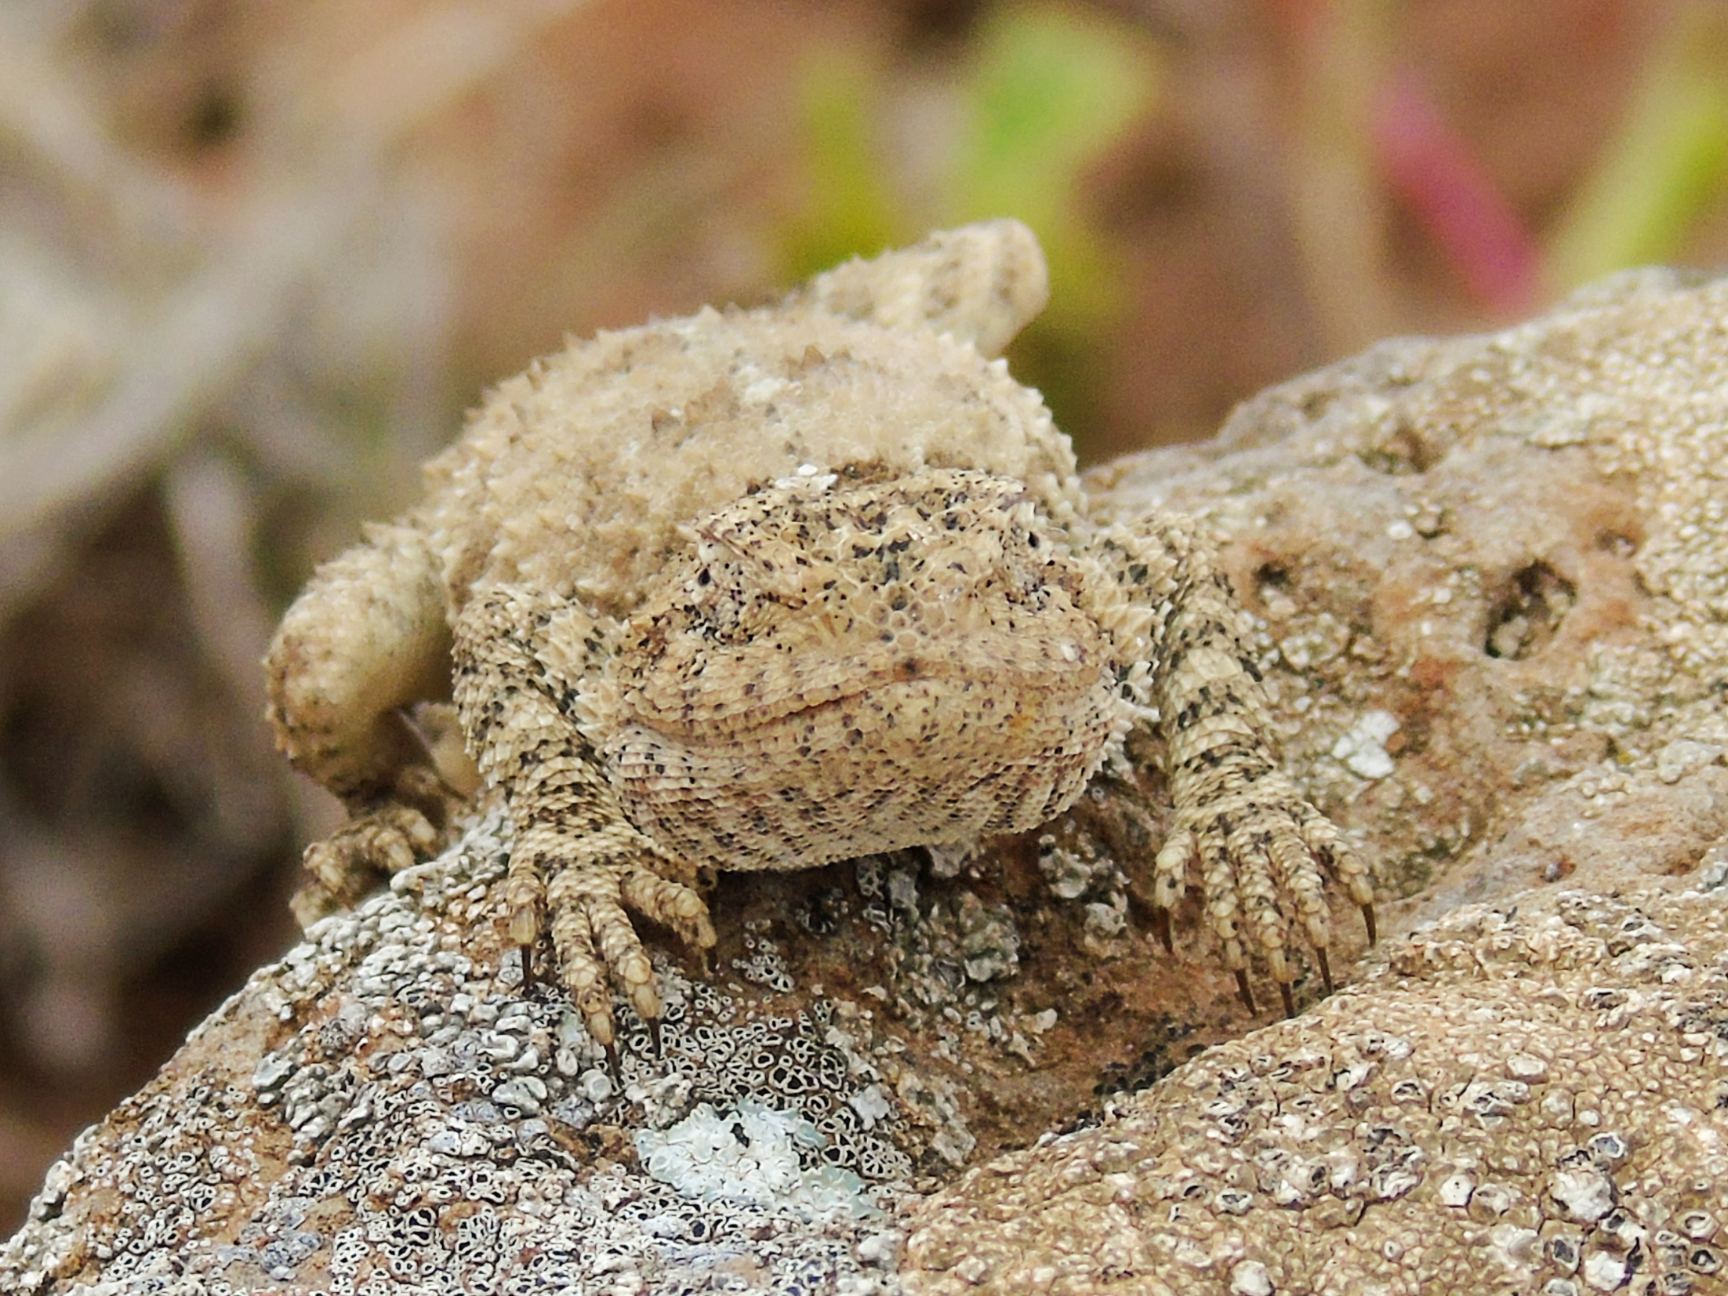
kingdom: Animalia
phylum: Chordata
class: Squamata
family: Agamidae
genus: Trapelus
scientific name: Trapelus ruderatus
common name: Baluch ground agama
